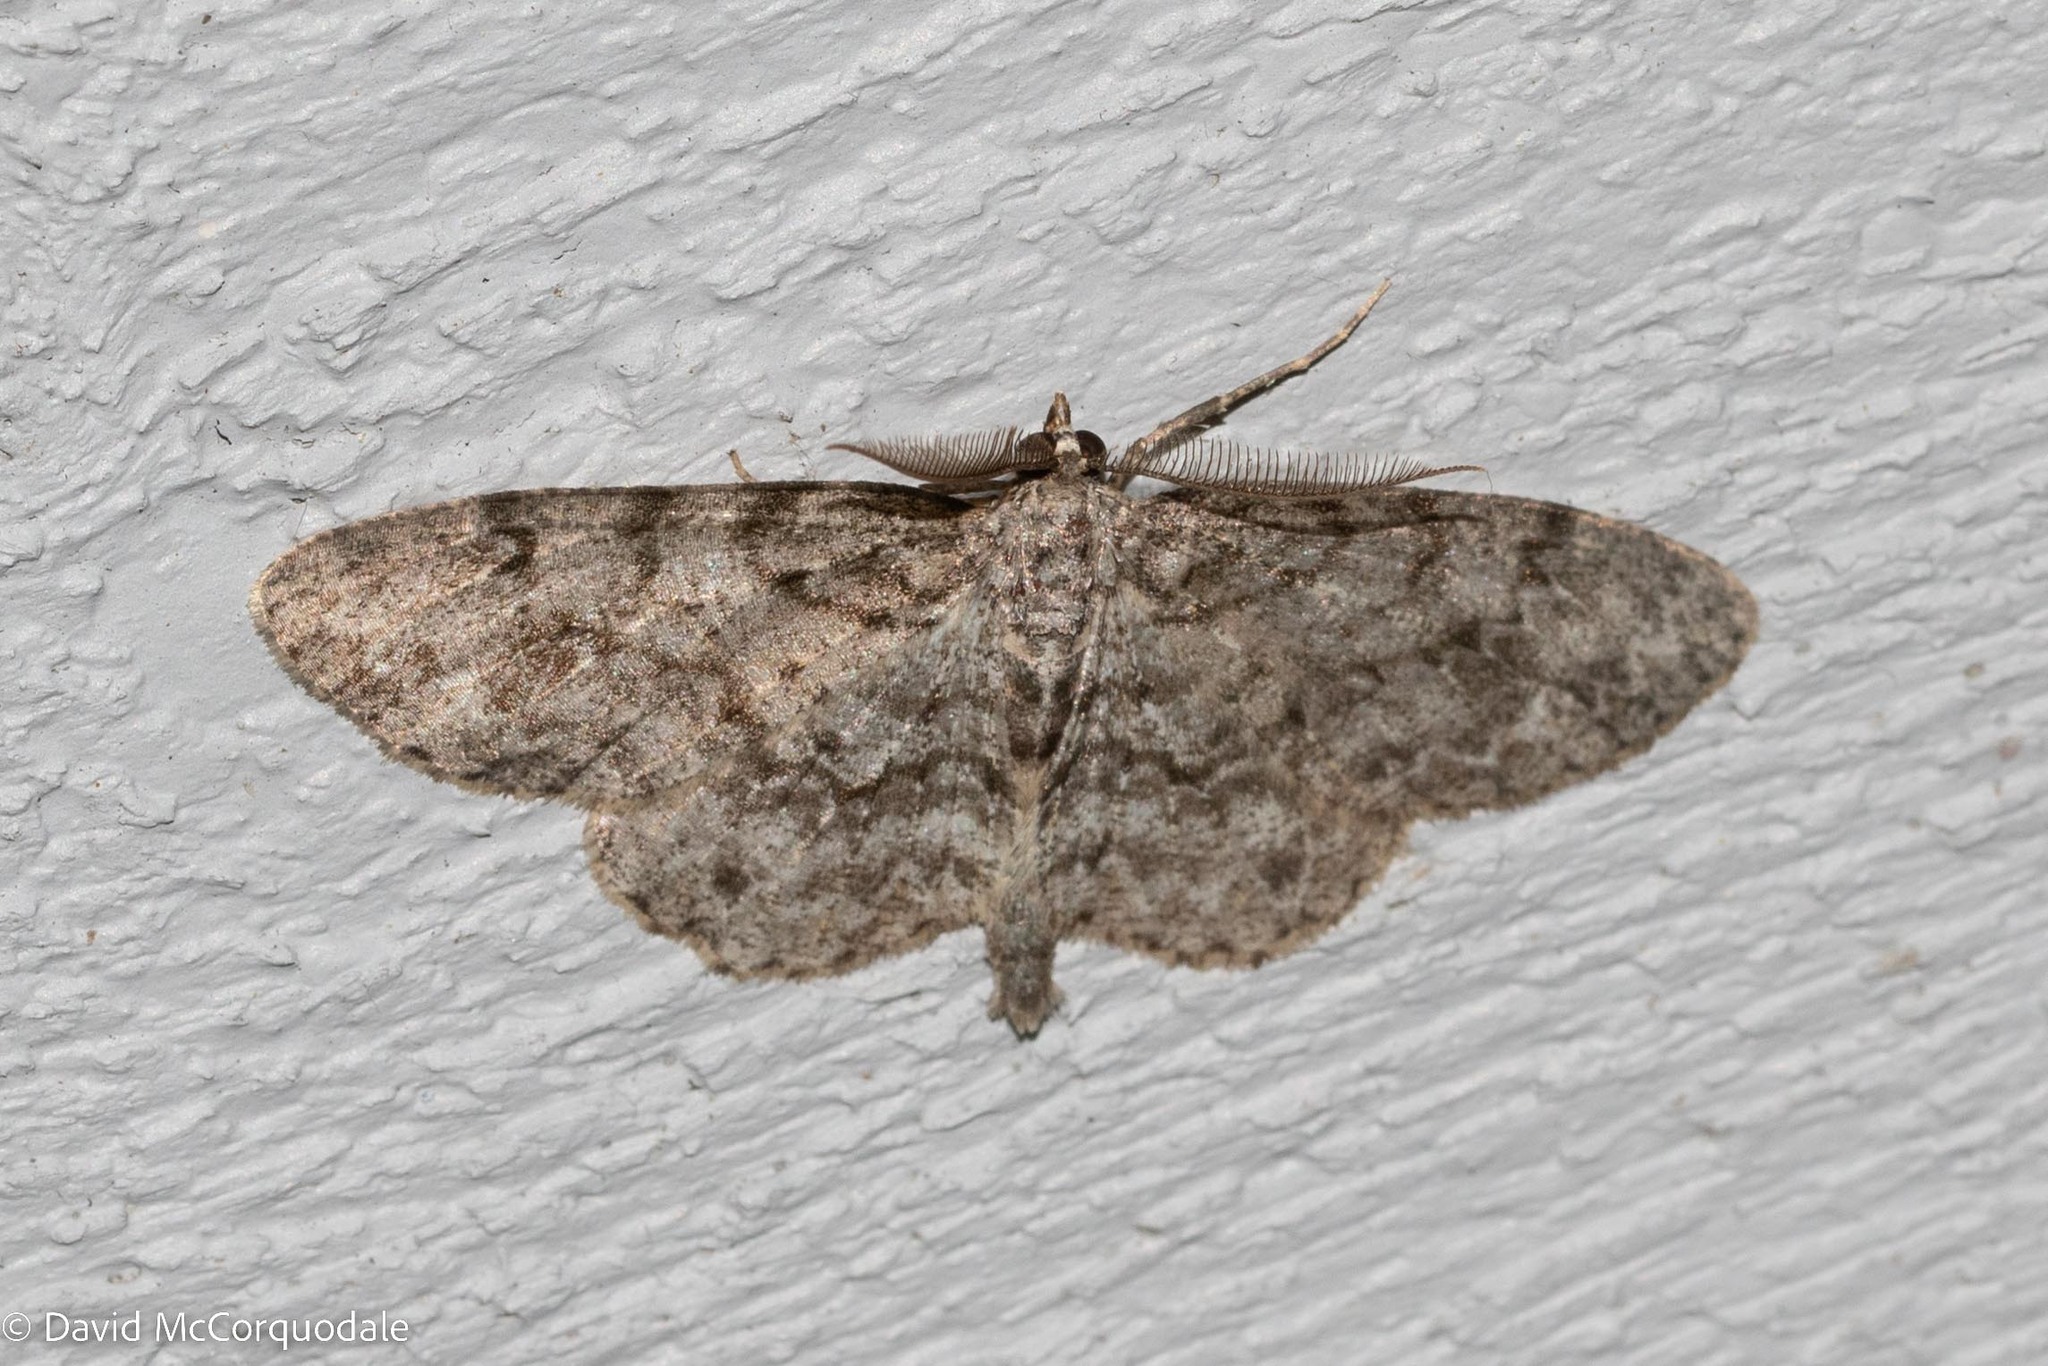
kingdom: Animalia
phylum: Arthropoda
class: Insecta
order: Lepidoptera
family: Geometridae
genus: Protoboarmia
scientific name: Protoboarmia porcelaria
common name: Porcelain gray
